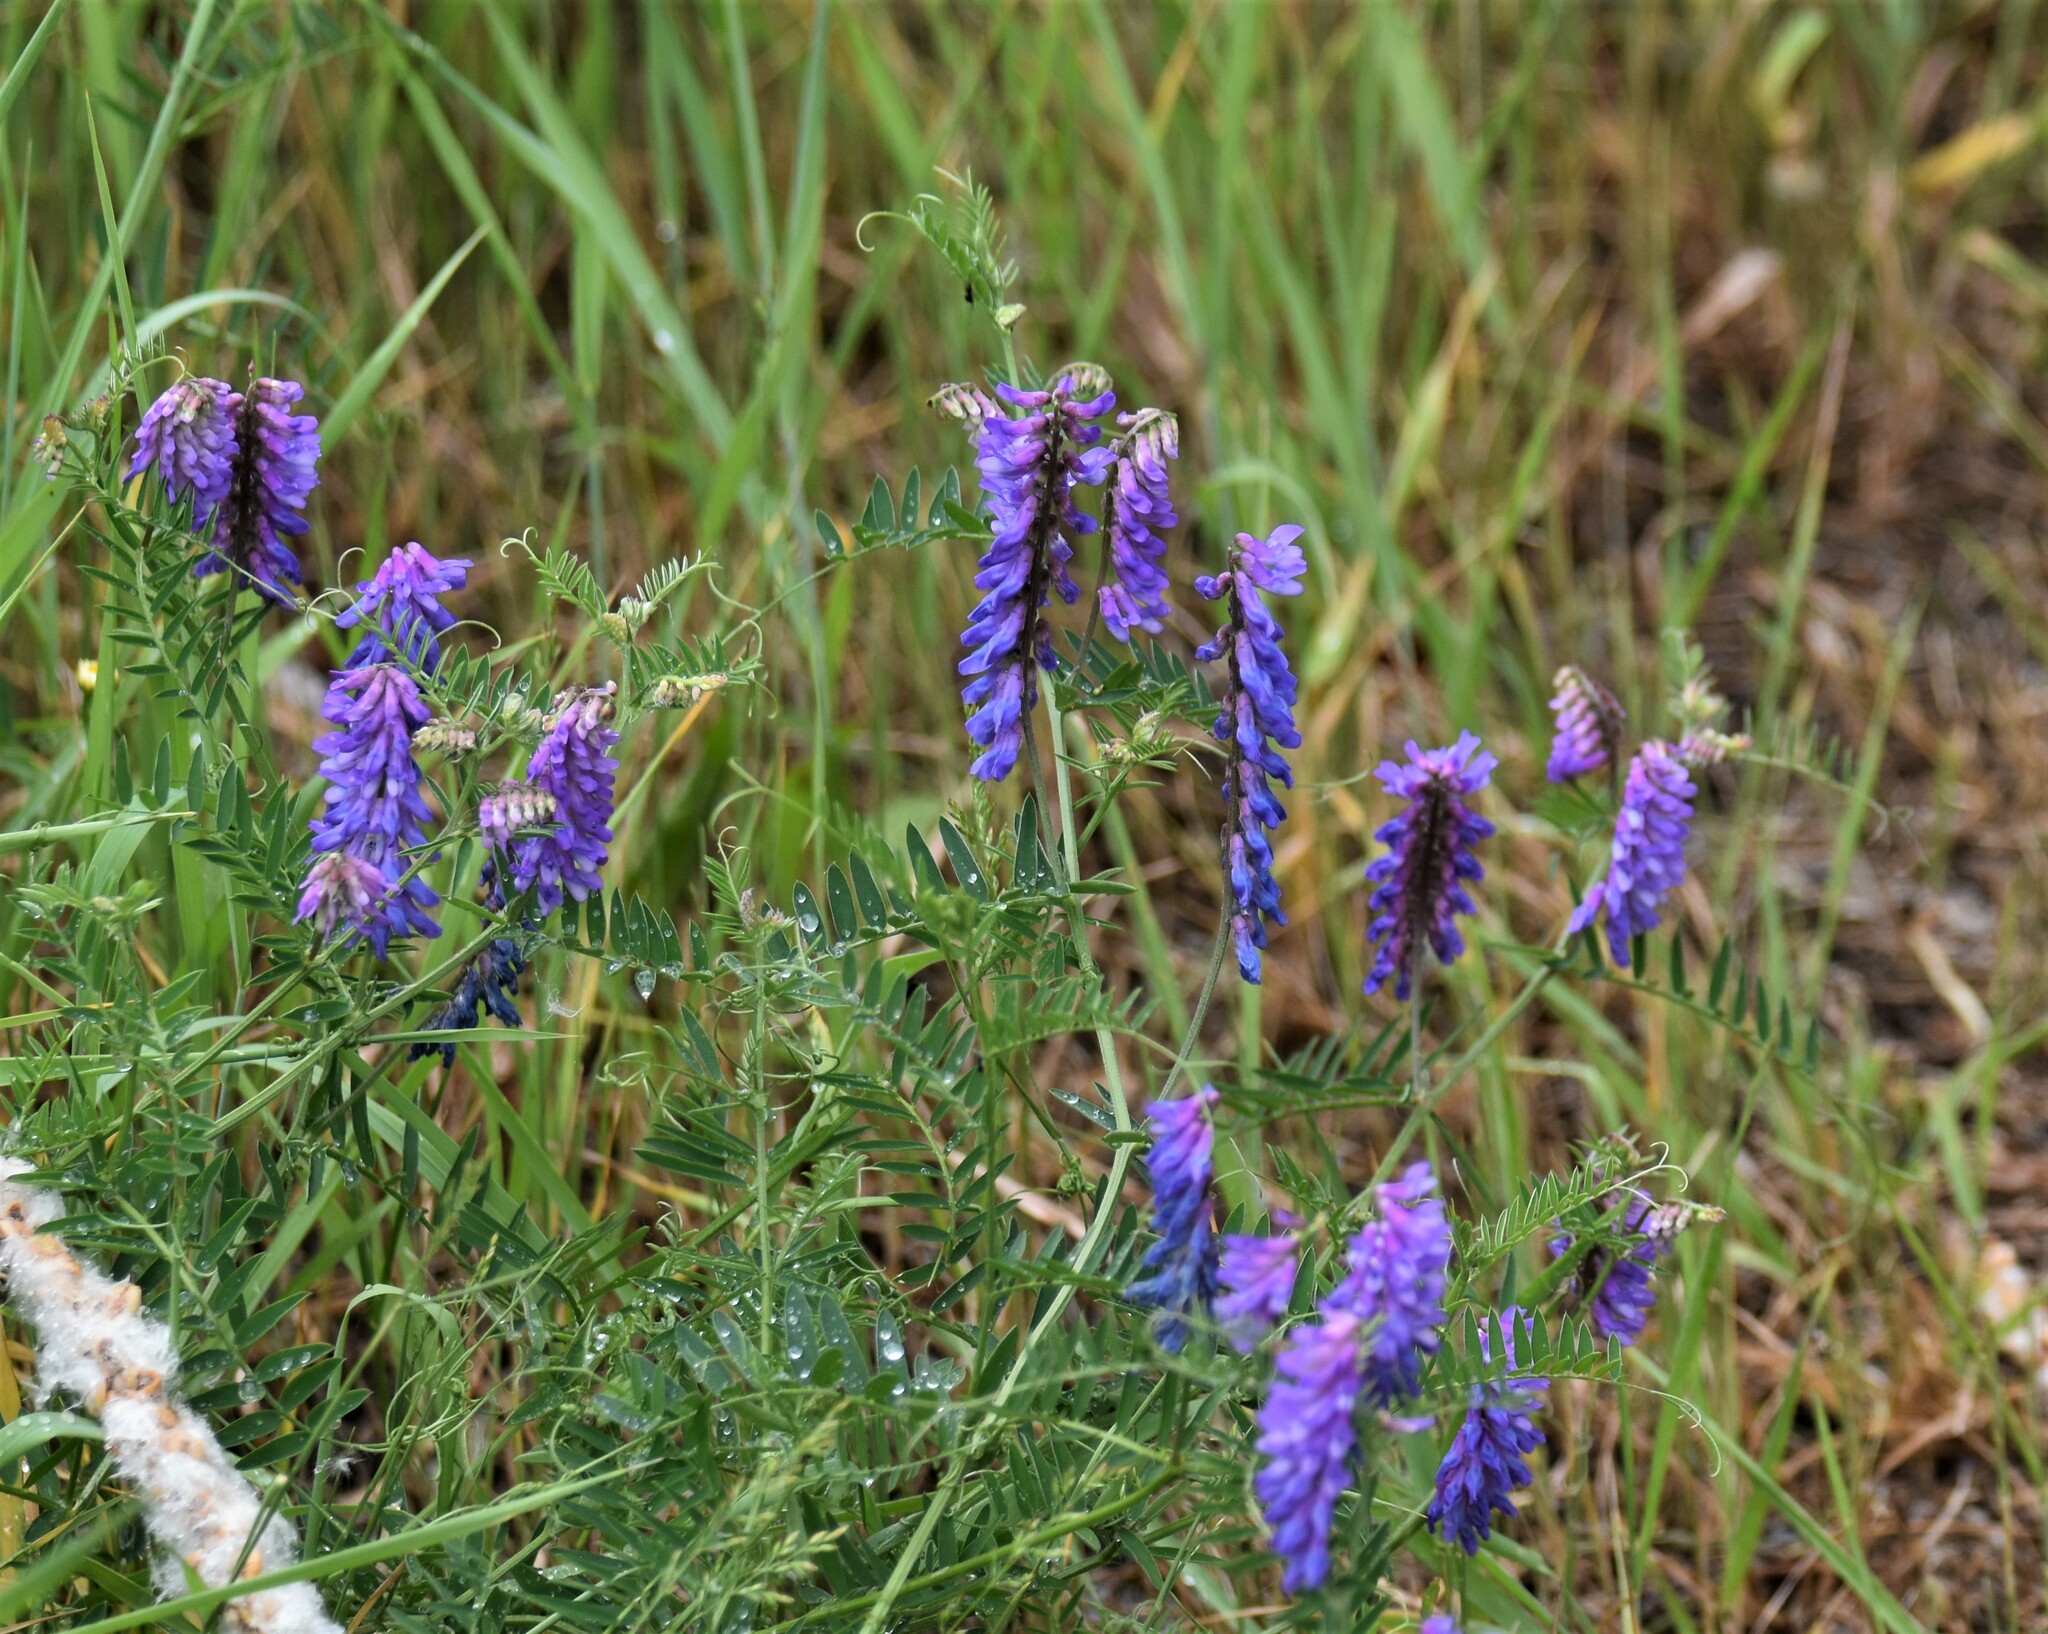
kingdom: Plantae
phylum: Tracheophyta
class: Magnoliopsida
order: Fabales
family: Fabaceae
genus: Vicia
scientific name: Vicia cracca
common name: Bird vetch
